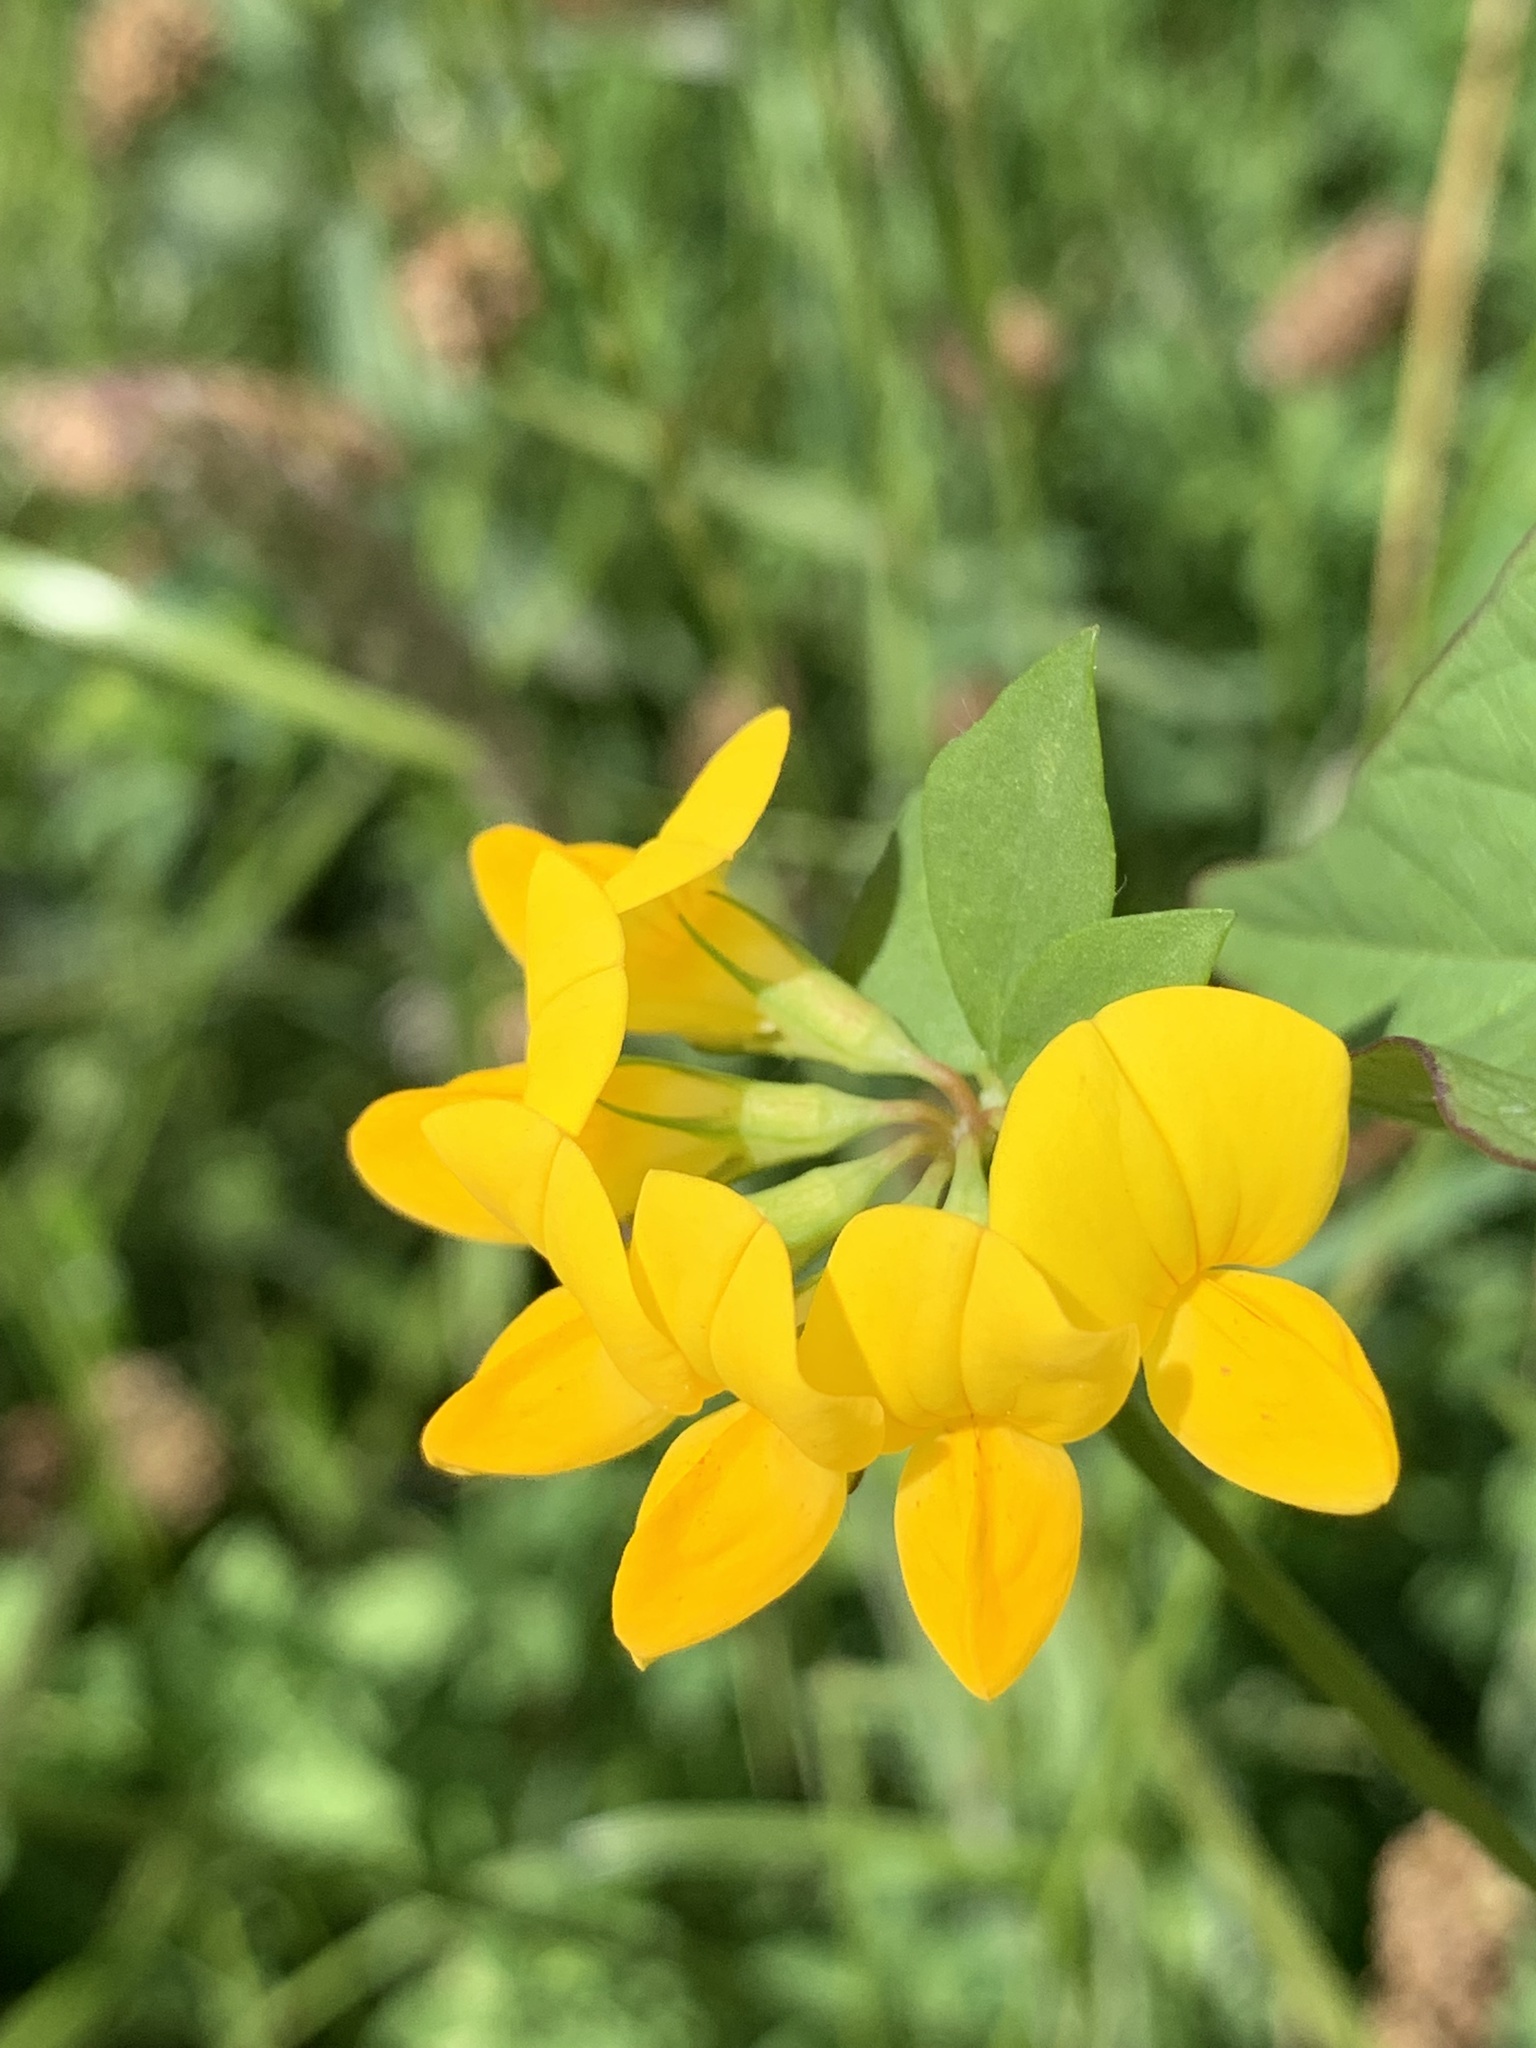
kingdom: Plantae
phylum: Tracheophyta
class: Magnoliopsida
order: Fabales
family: Fabaceae
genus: Lotus
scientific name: Lotus corniculatus
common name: Common bird's-foot-trefoil
